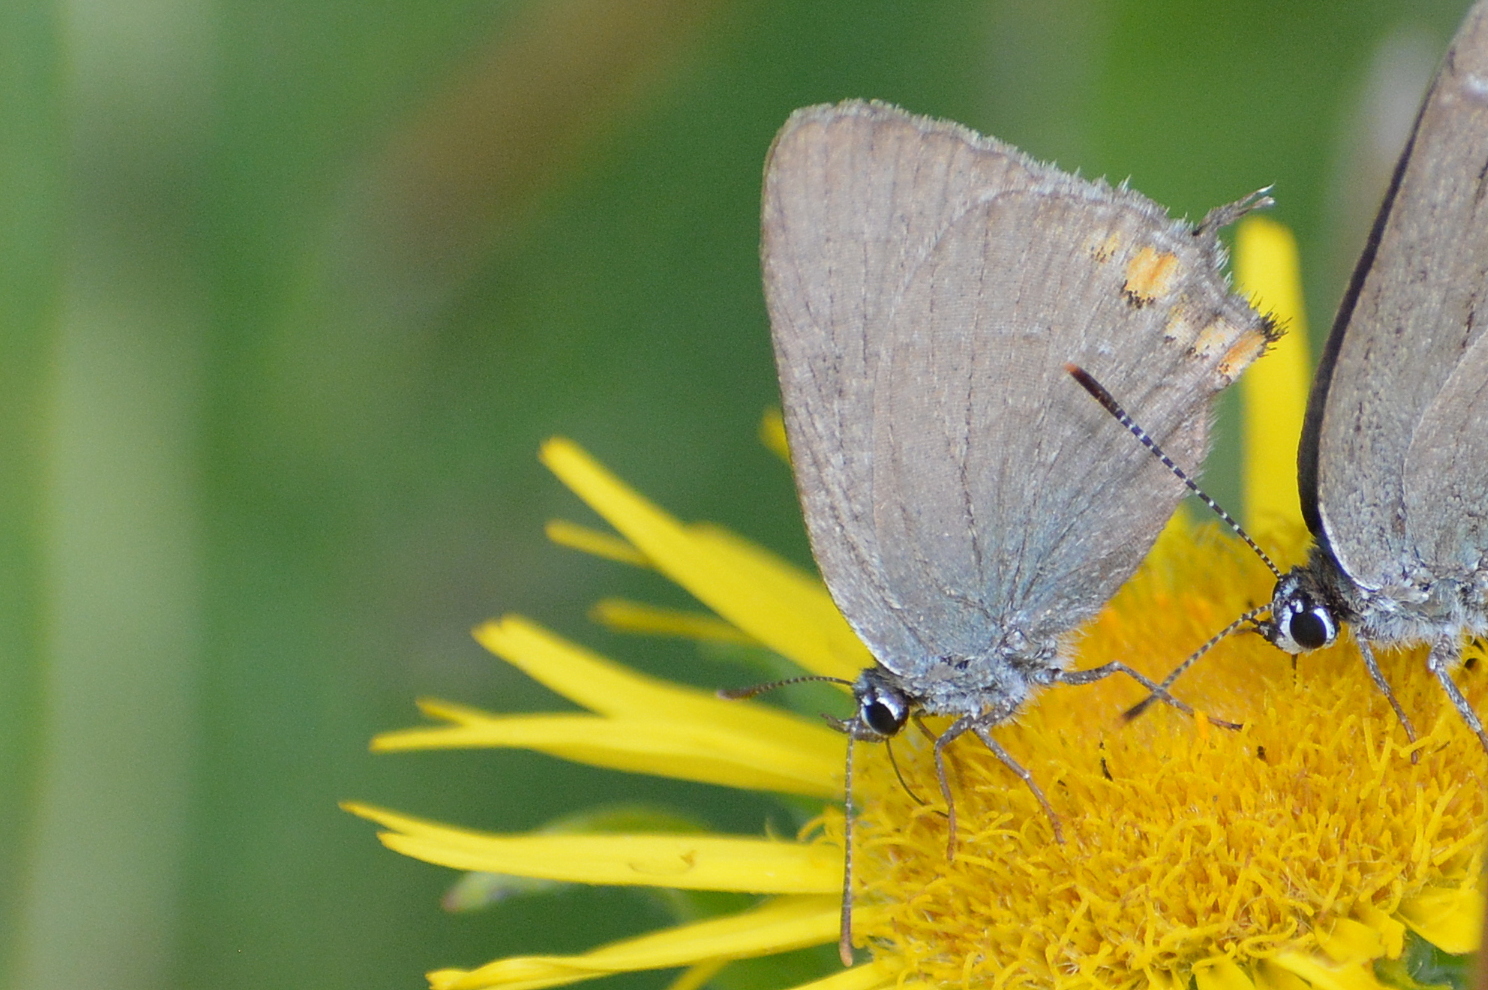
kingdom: Animalia
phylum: Arthropoda
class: Insecta
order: Lepidoptera
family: Lycaenidae
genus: Strymon
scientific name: Strymon acaciae
